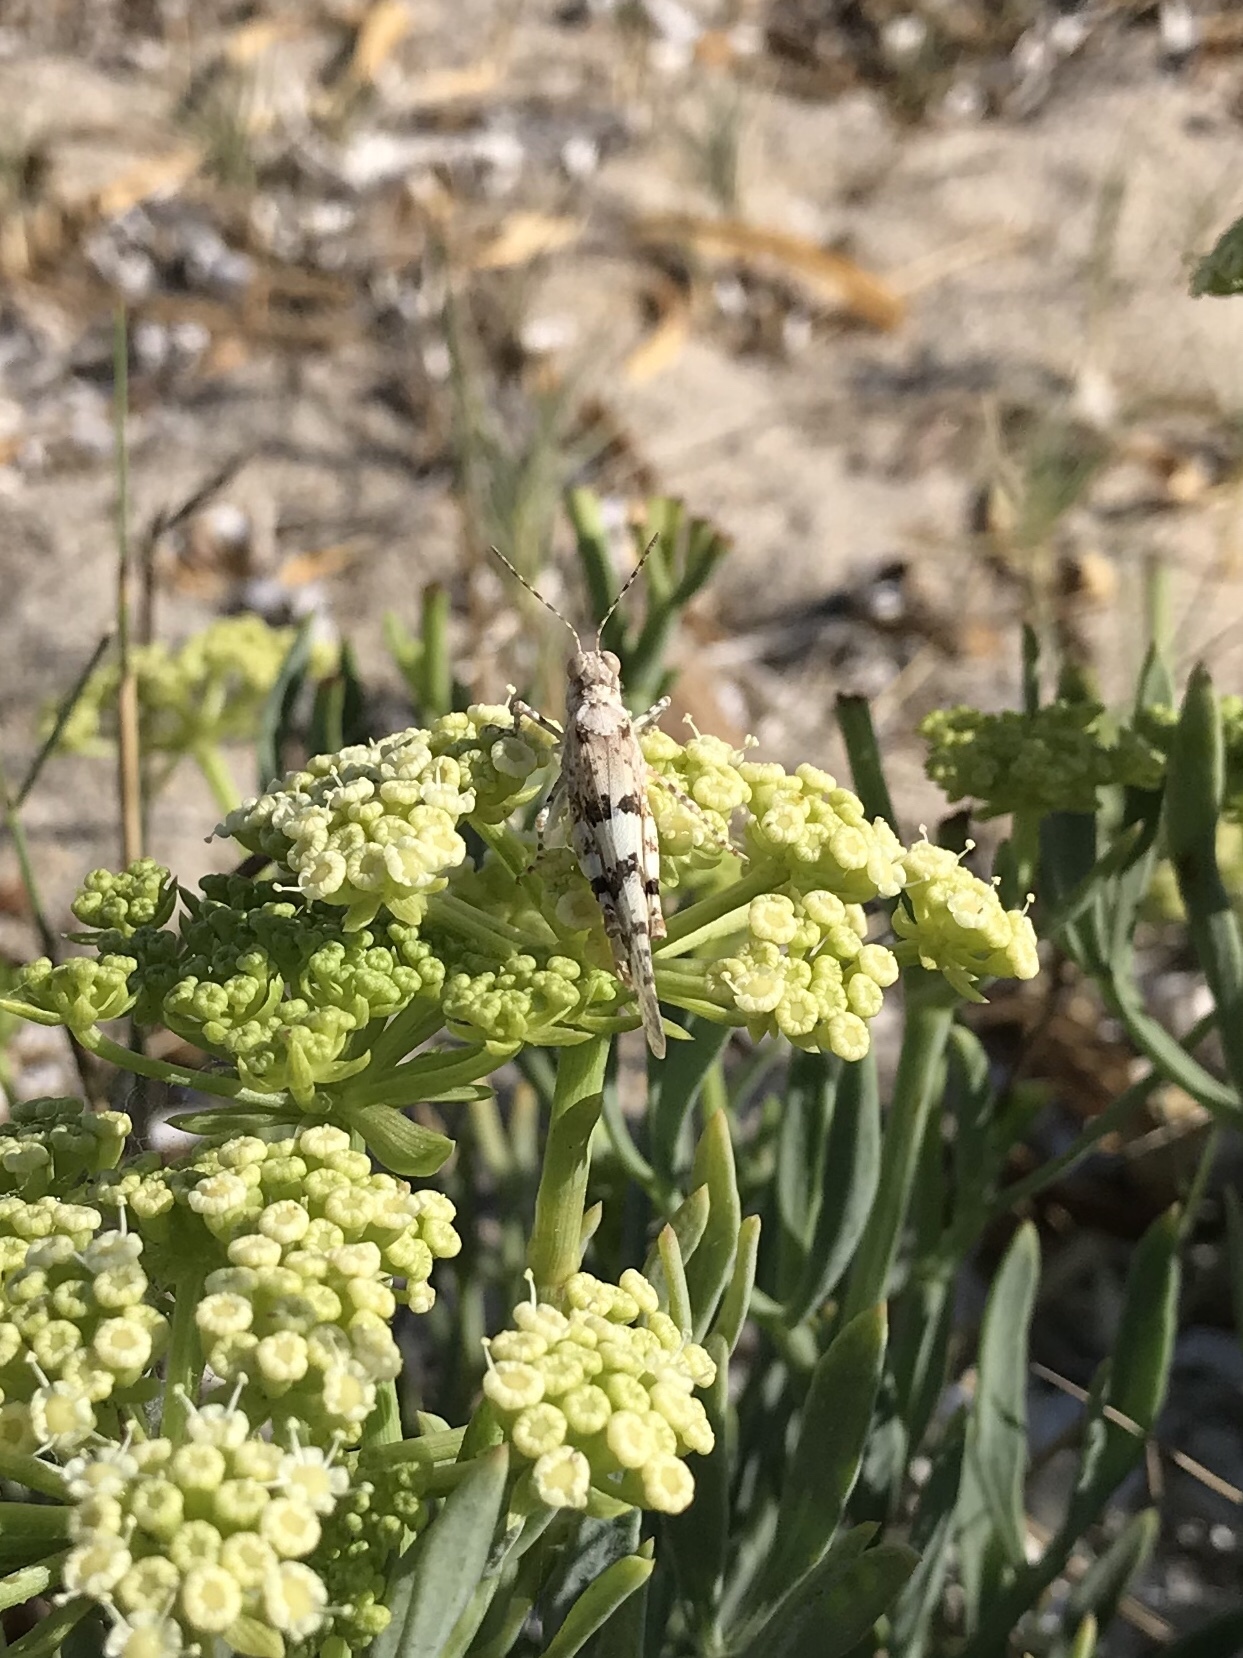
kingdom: Animalia
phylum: Arthropoda
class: Insecta
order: Orthoptera
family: Acrididae
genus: Sphingonotus
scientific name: Sphingonotus uvarovi
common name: Tyrrhenian sand grasshopper
